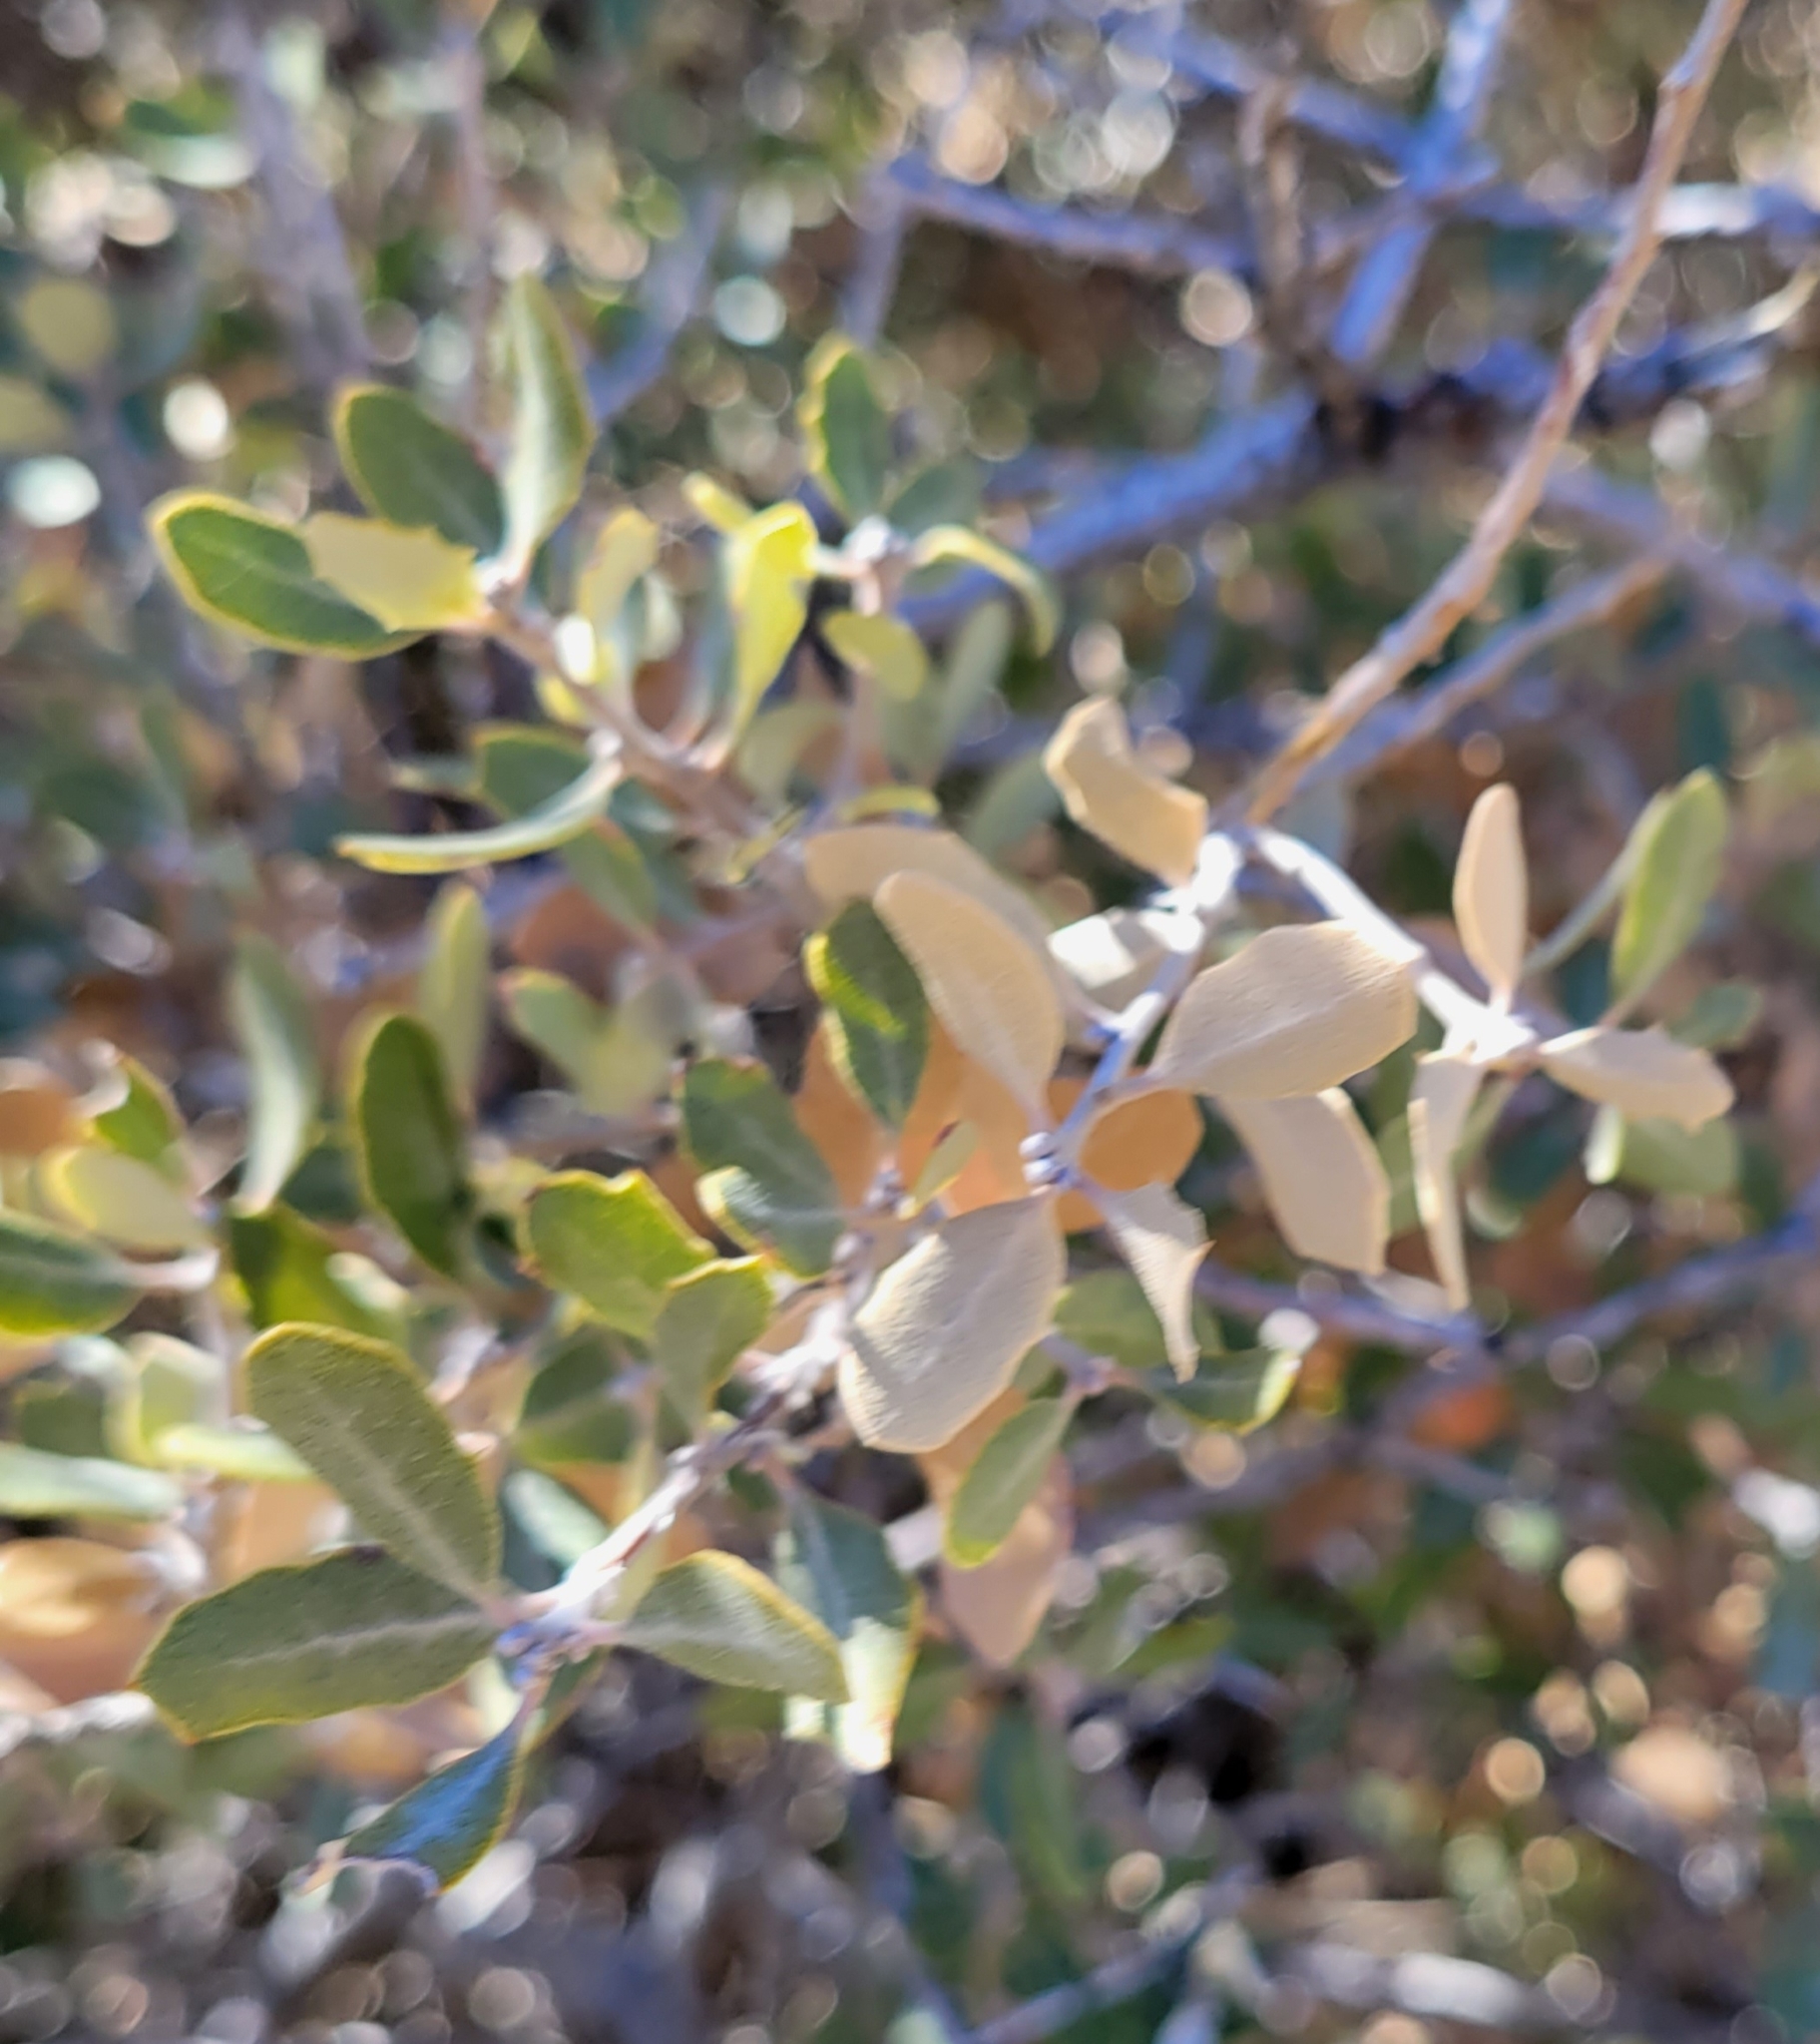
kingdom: Plantae
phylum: Tracheophyta
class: Magnoliopsida
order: Fagales
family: Fagaceae
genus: Quercus
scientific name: Quercus cornelius-mulleri
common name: Muller oak
